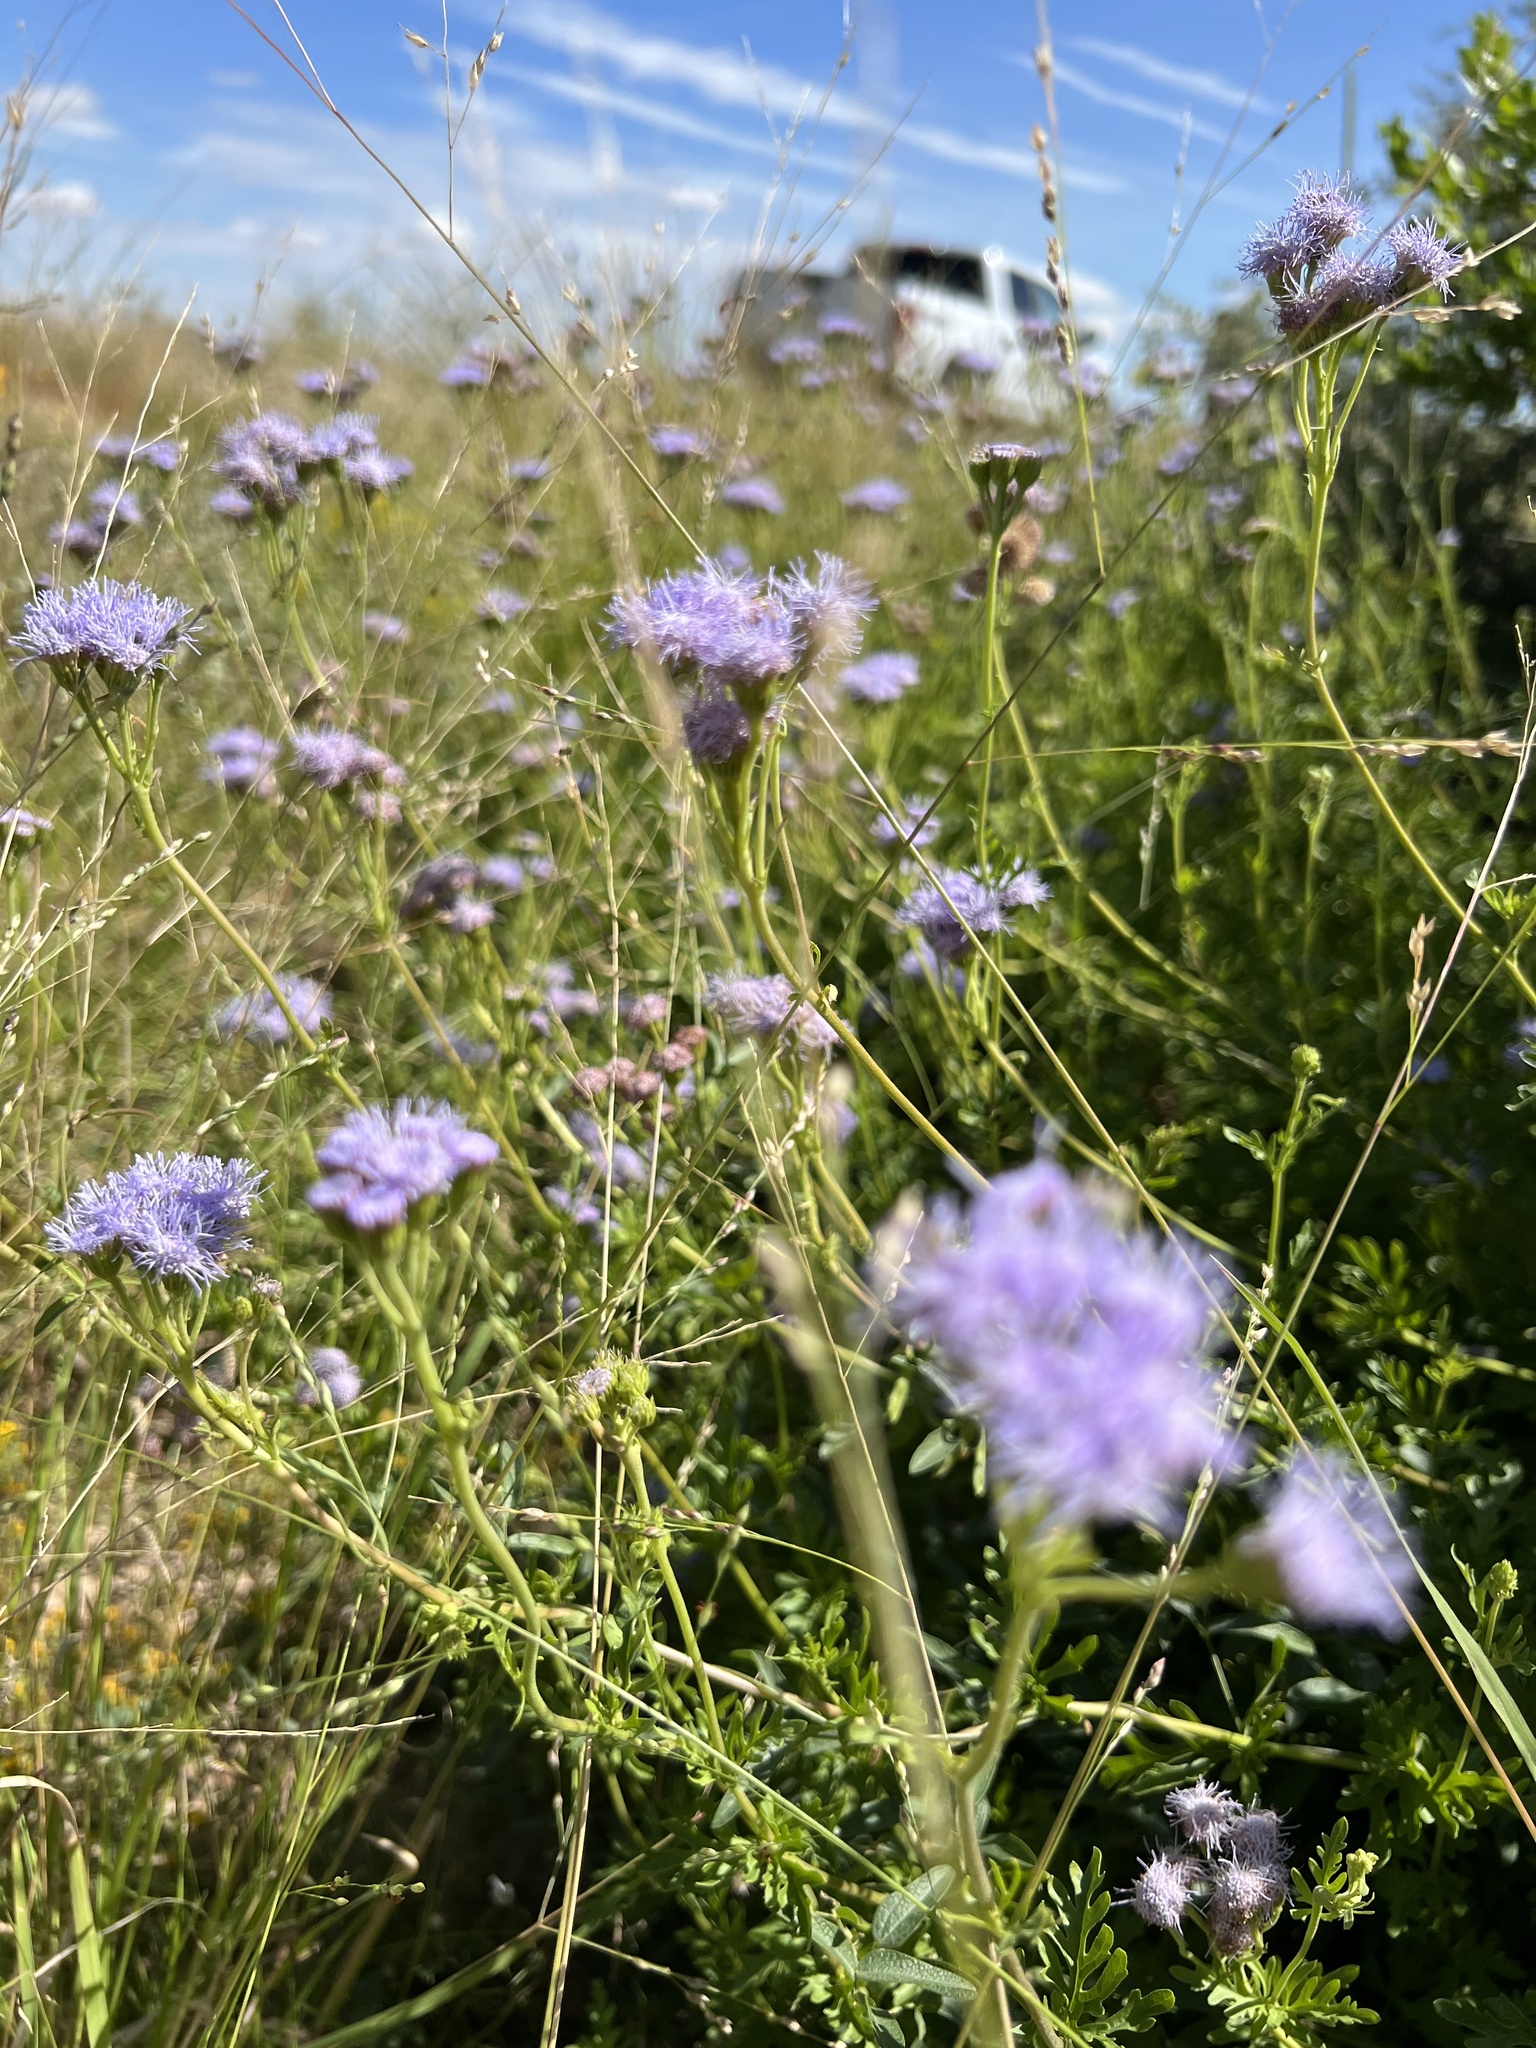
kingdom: Plantae
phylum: Tracheophyta
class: Magnoliopsida
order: Asterales
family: Asteraceae
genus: Conoclinium
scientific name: Conoclinium dissectum
